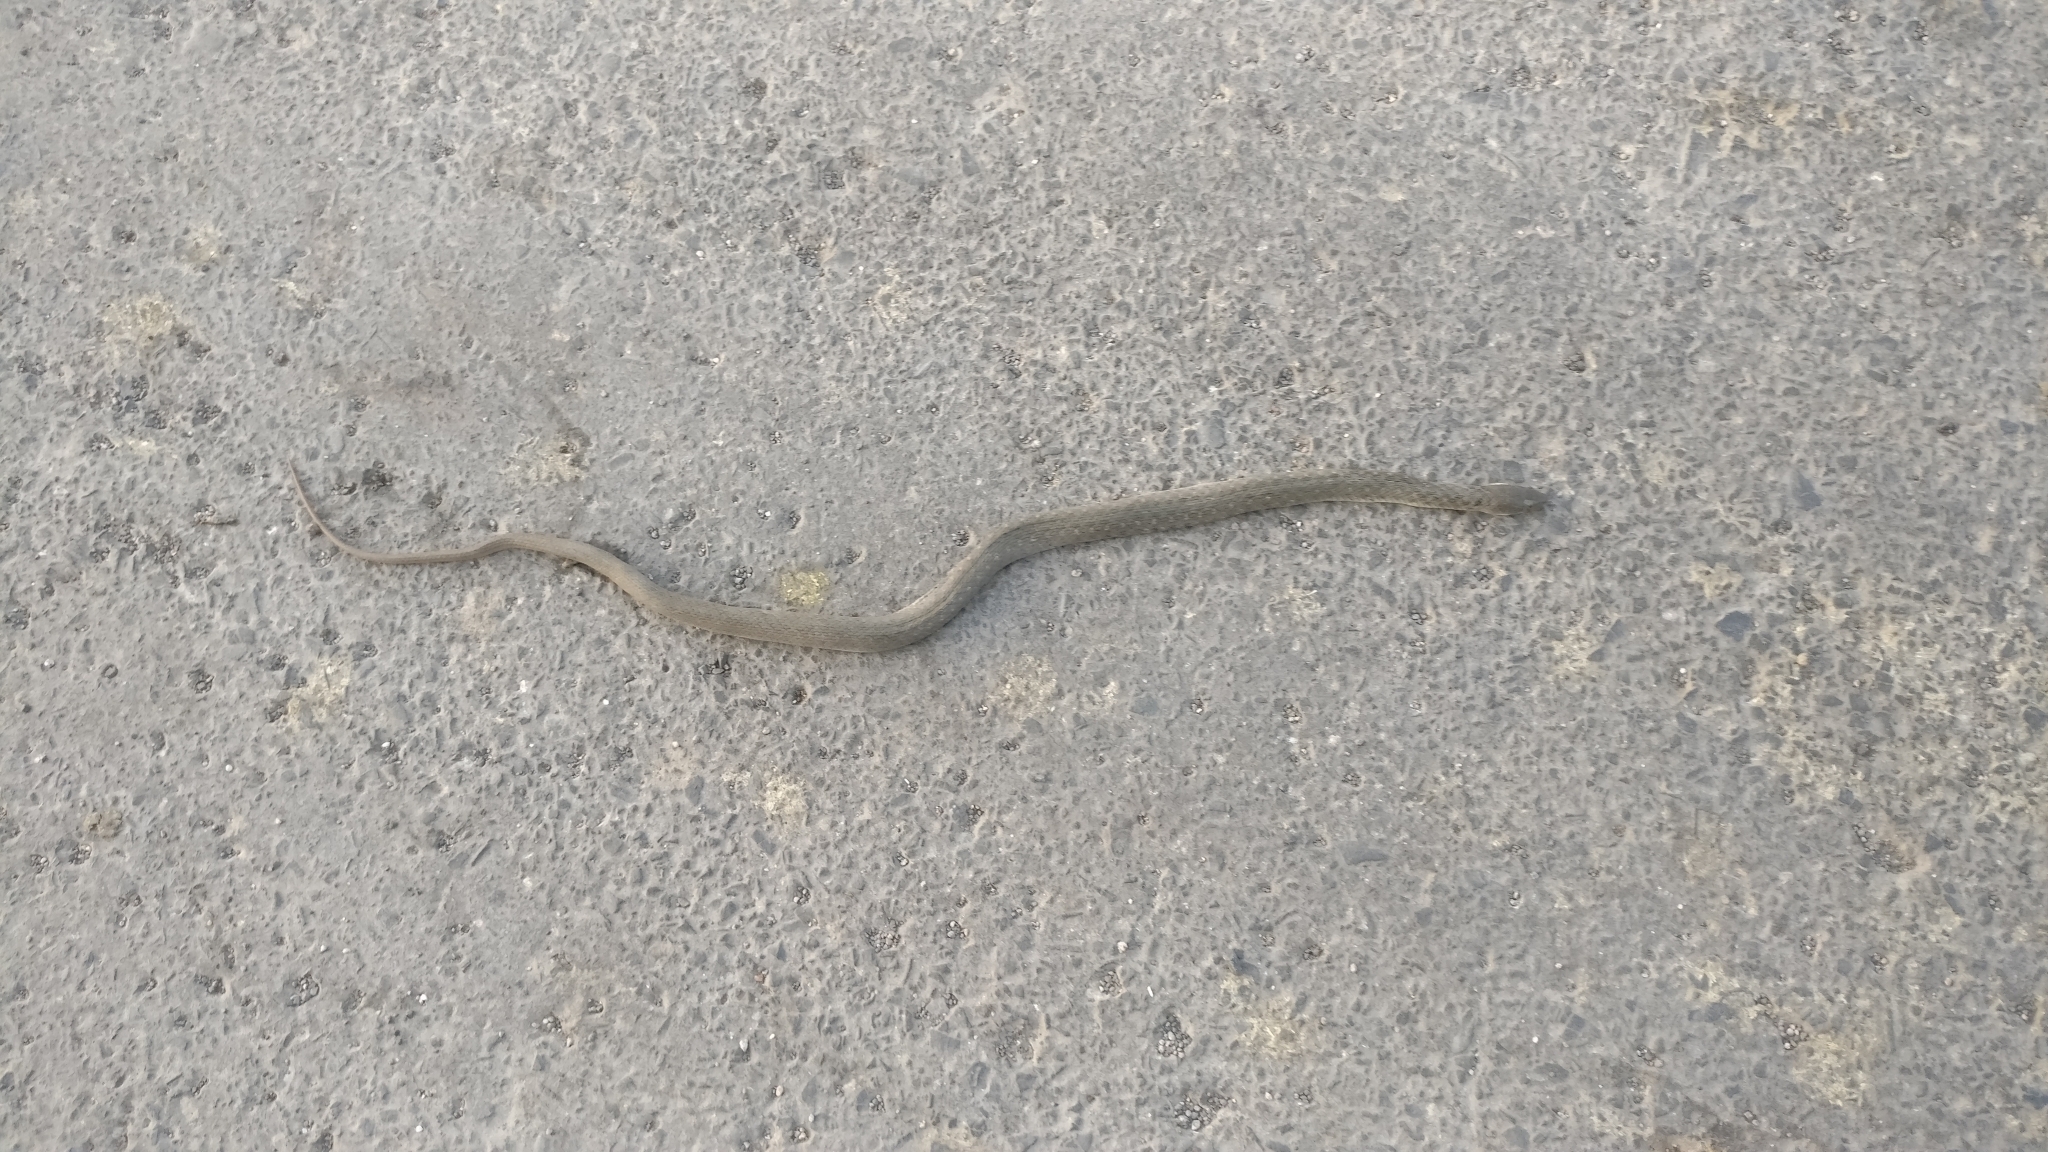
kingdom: Animalia
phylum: Chordata
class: Squamata
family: Colubridae
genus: Fowlea
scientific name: Fowlea piscator
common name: Asiatic water snake
